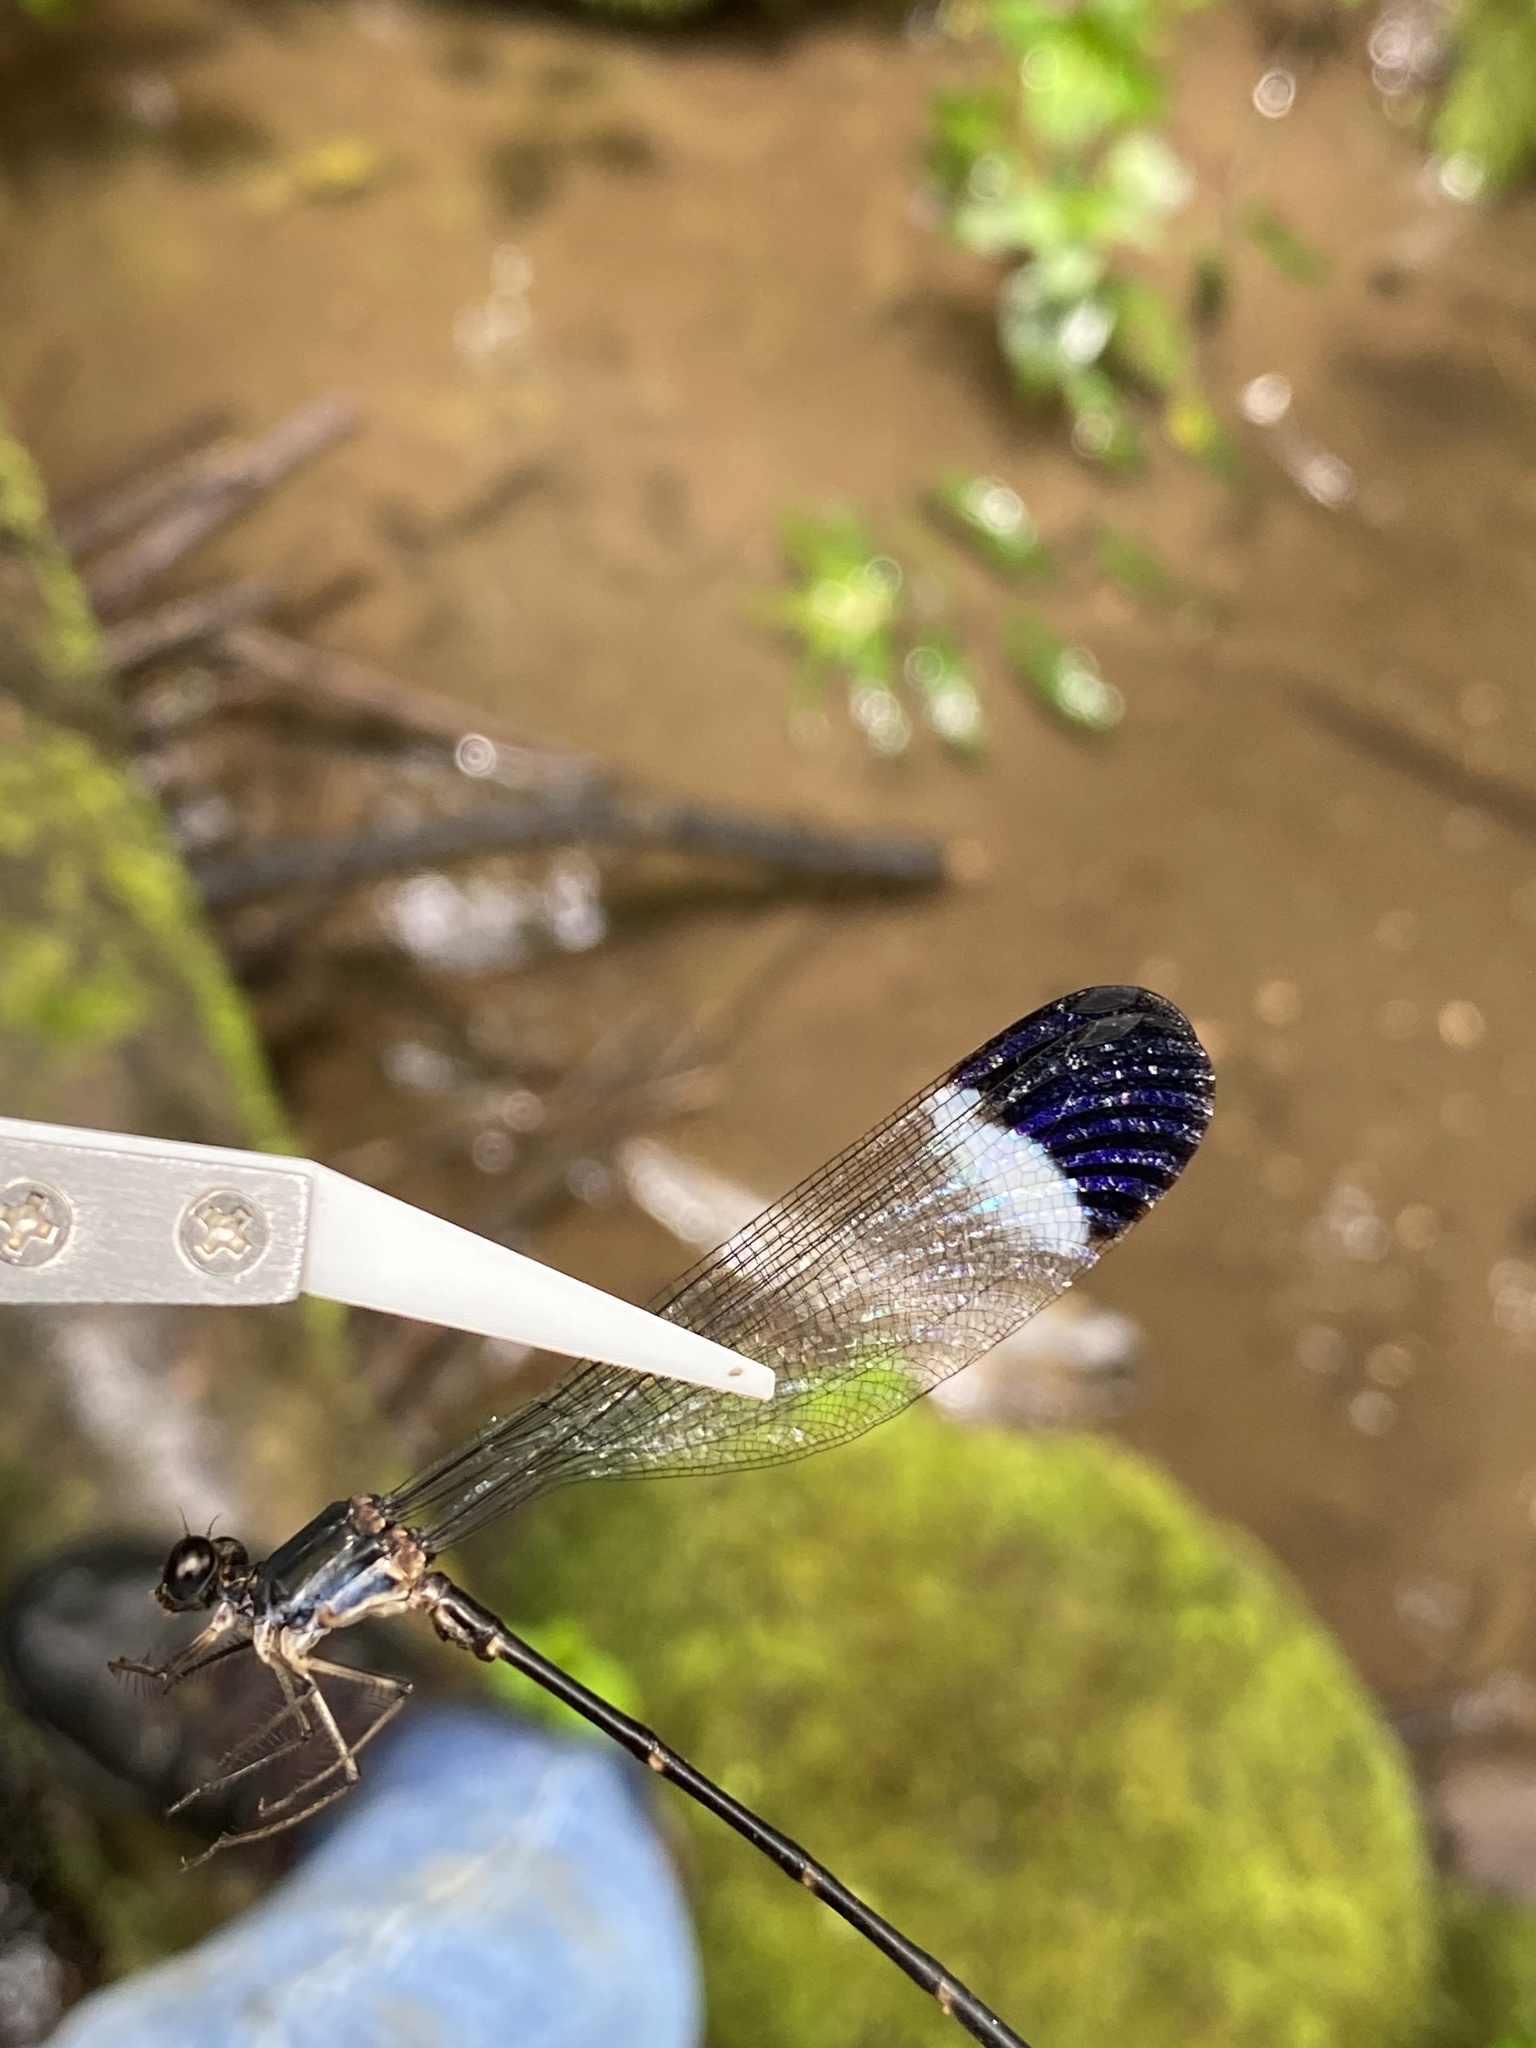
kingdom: Animalia
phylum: Arthropoda
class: Insecta
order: Odonata
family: Thaumatoneuridae
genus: Paraphlebia
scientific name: Paraphlebia zoe
